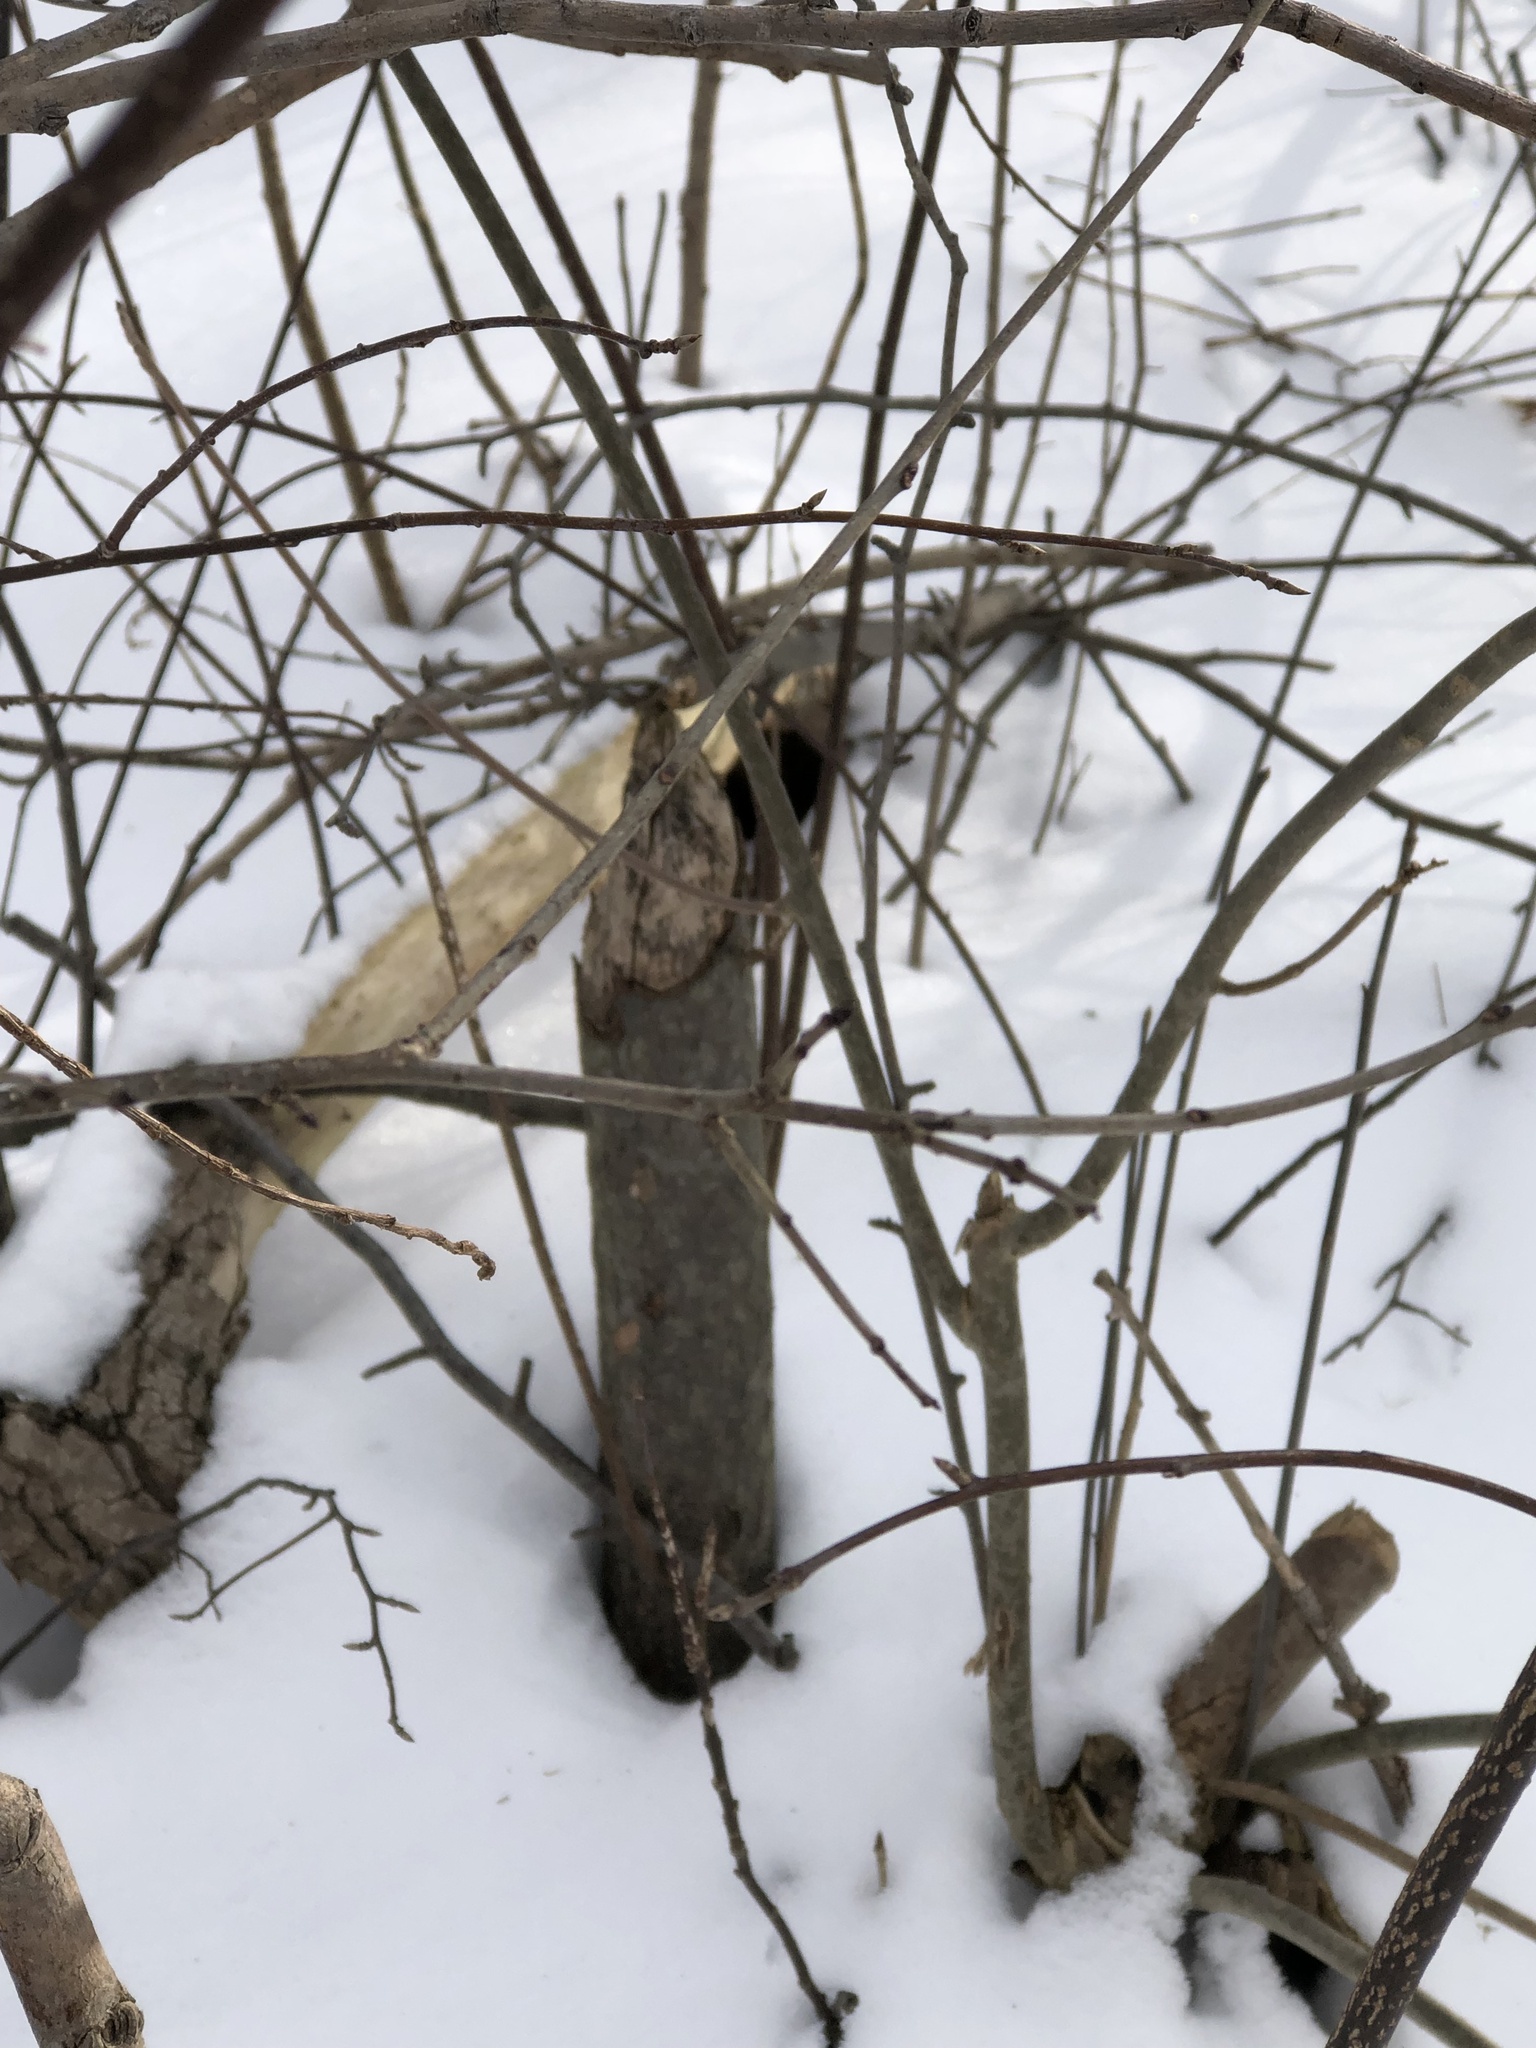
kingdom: Animalia
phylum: Chordata
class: Mammalia
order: Rodentia
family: Castoridae
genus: Castor
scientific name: Castor canadensis
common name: American beaver
